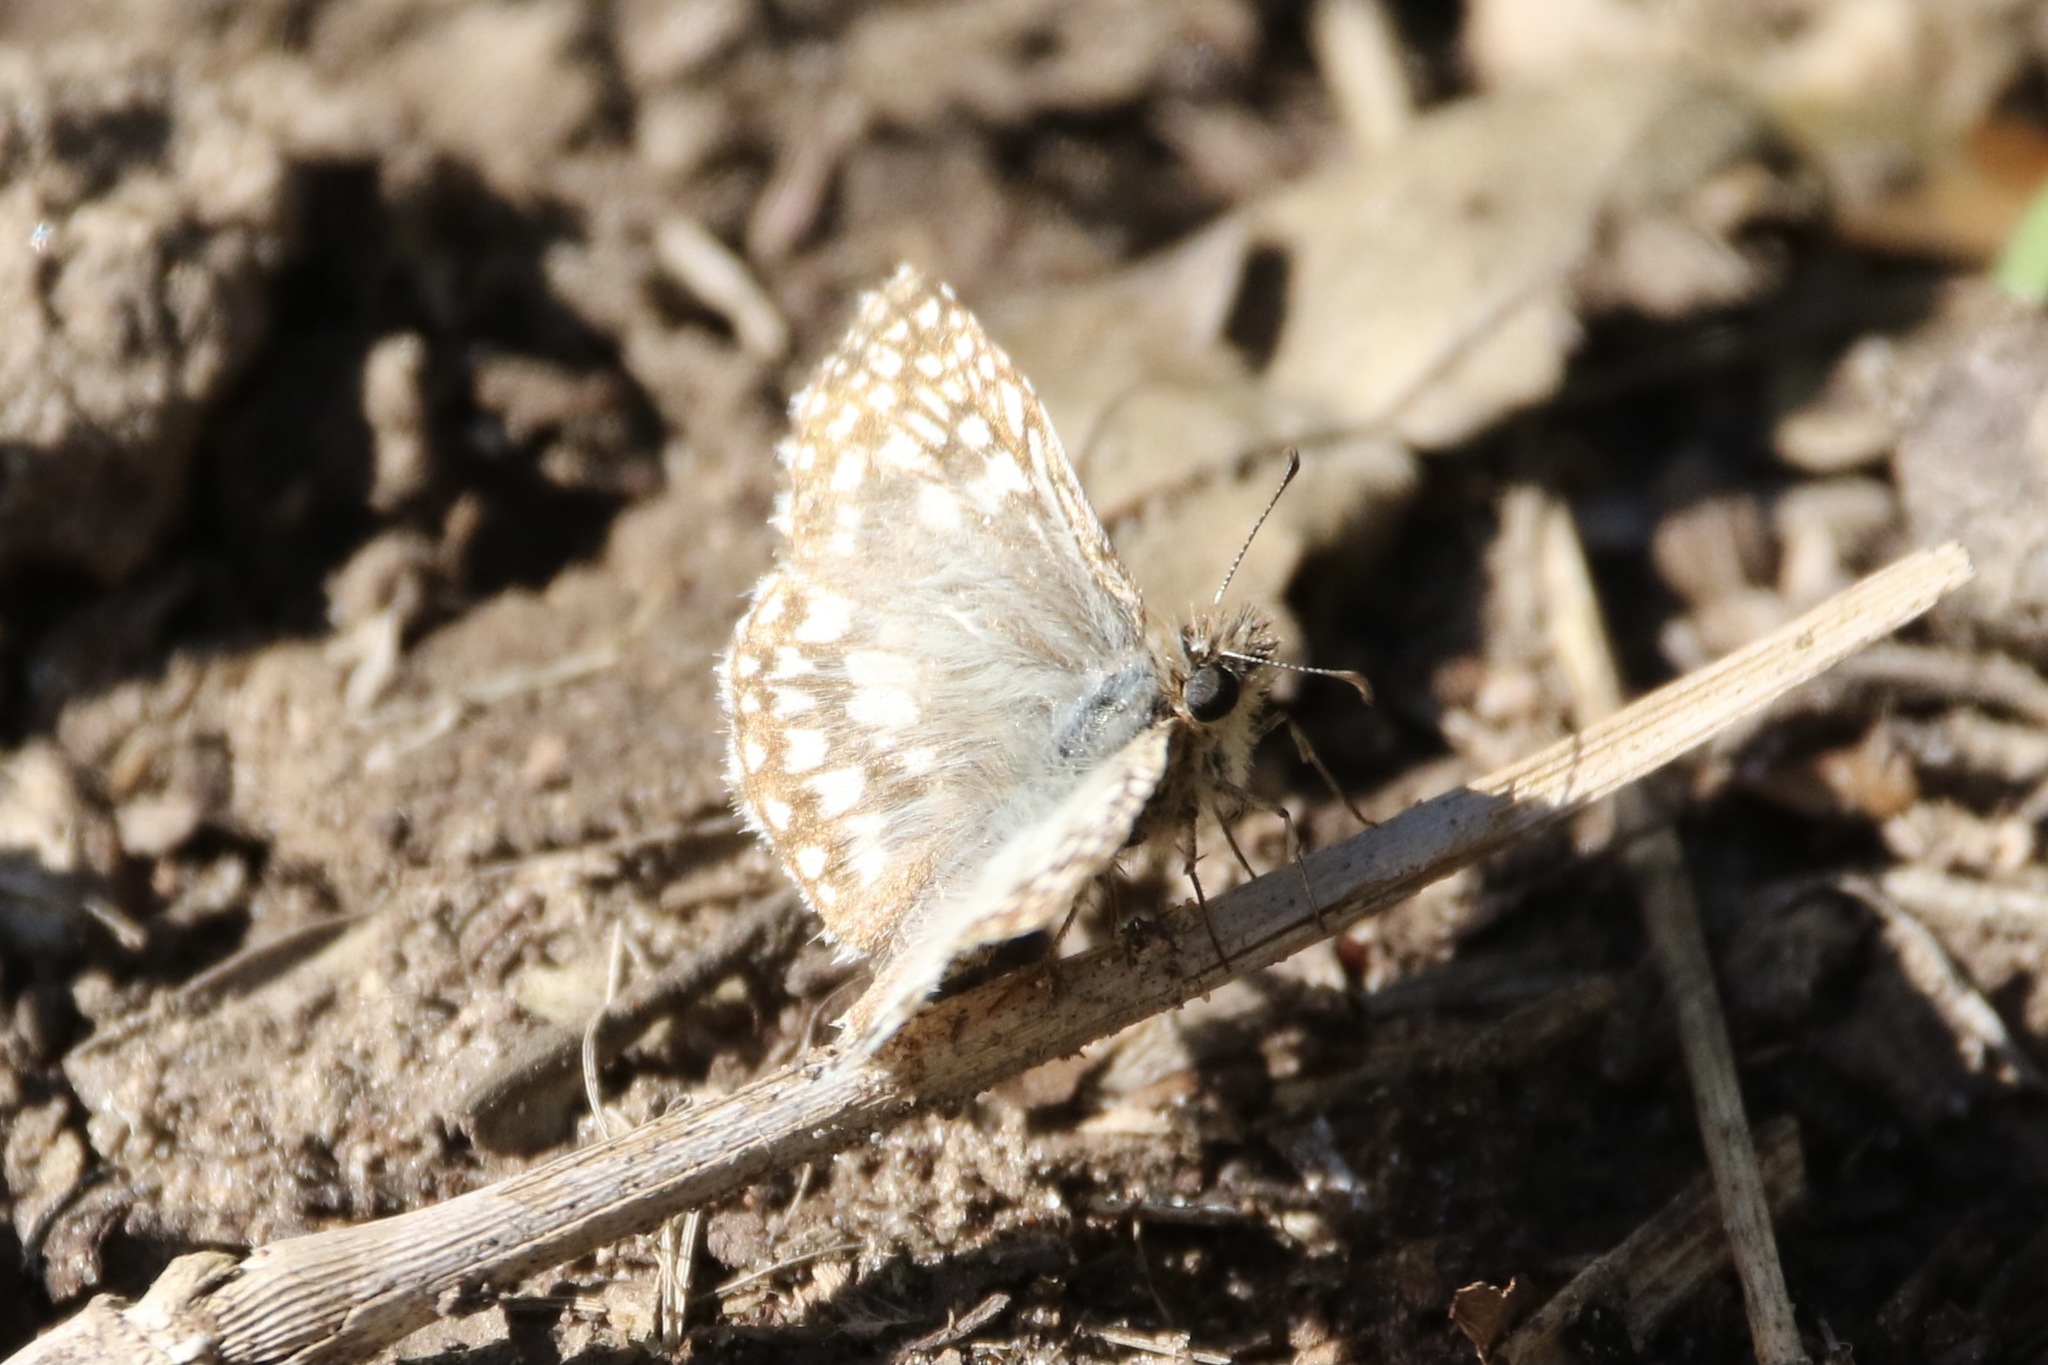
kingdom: Animalia
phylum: Arthropoda
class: Insecta
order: Lepidoptera
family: Hesperiidae
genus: Pyrgus
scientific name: Pyrgus oileus
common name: Tropical checkered-skipper
